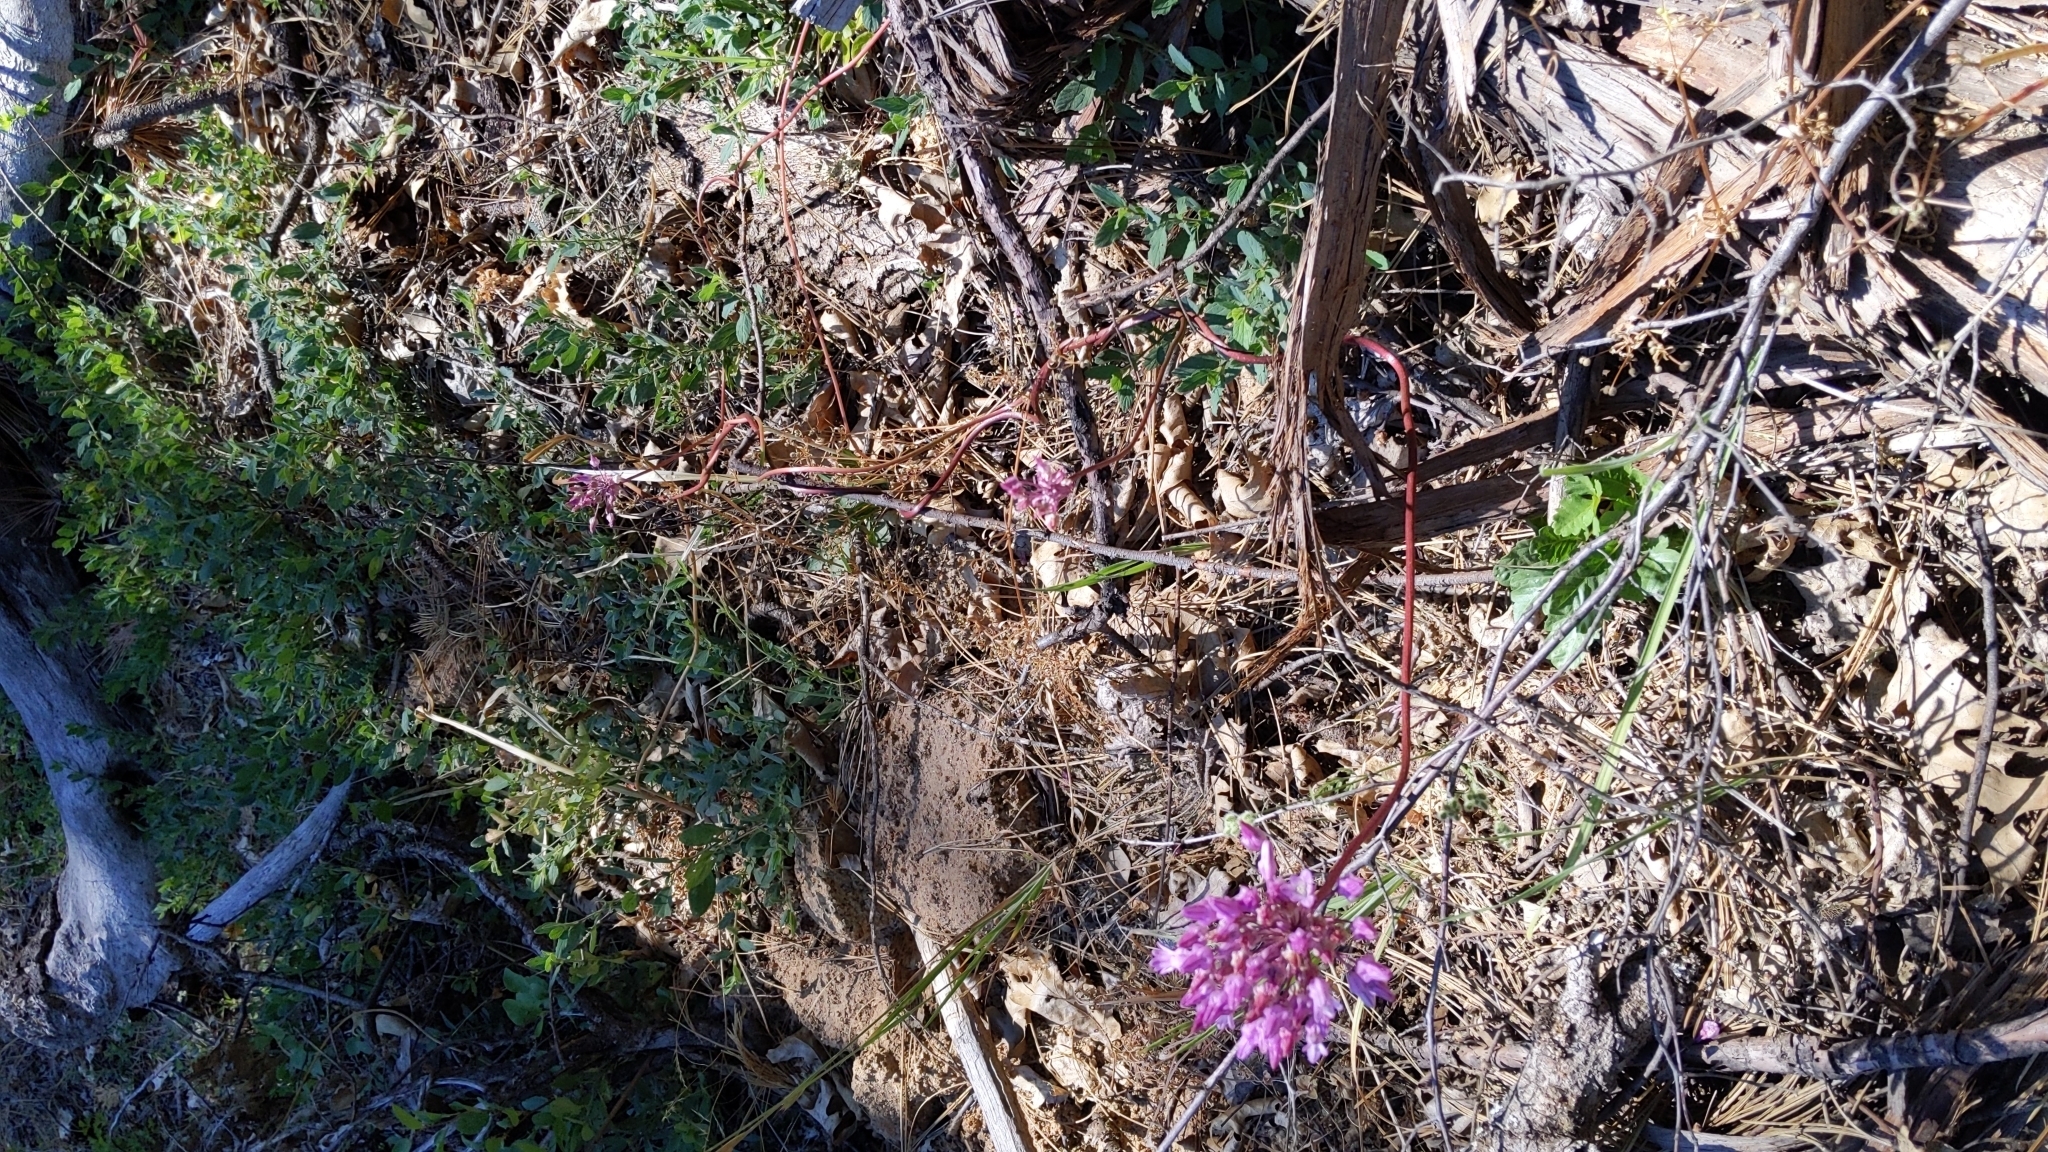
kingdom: Plantae
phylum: Tracheophyta
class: Liliopsida
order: Asparagales
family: Asparagaceae
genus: Dichelostemma
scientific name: Dichelostemma volubile
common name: Trining brodiaea
